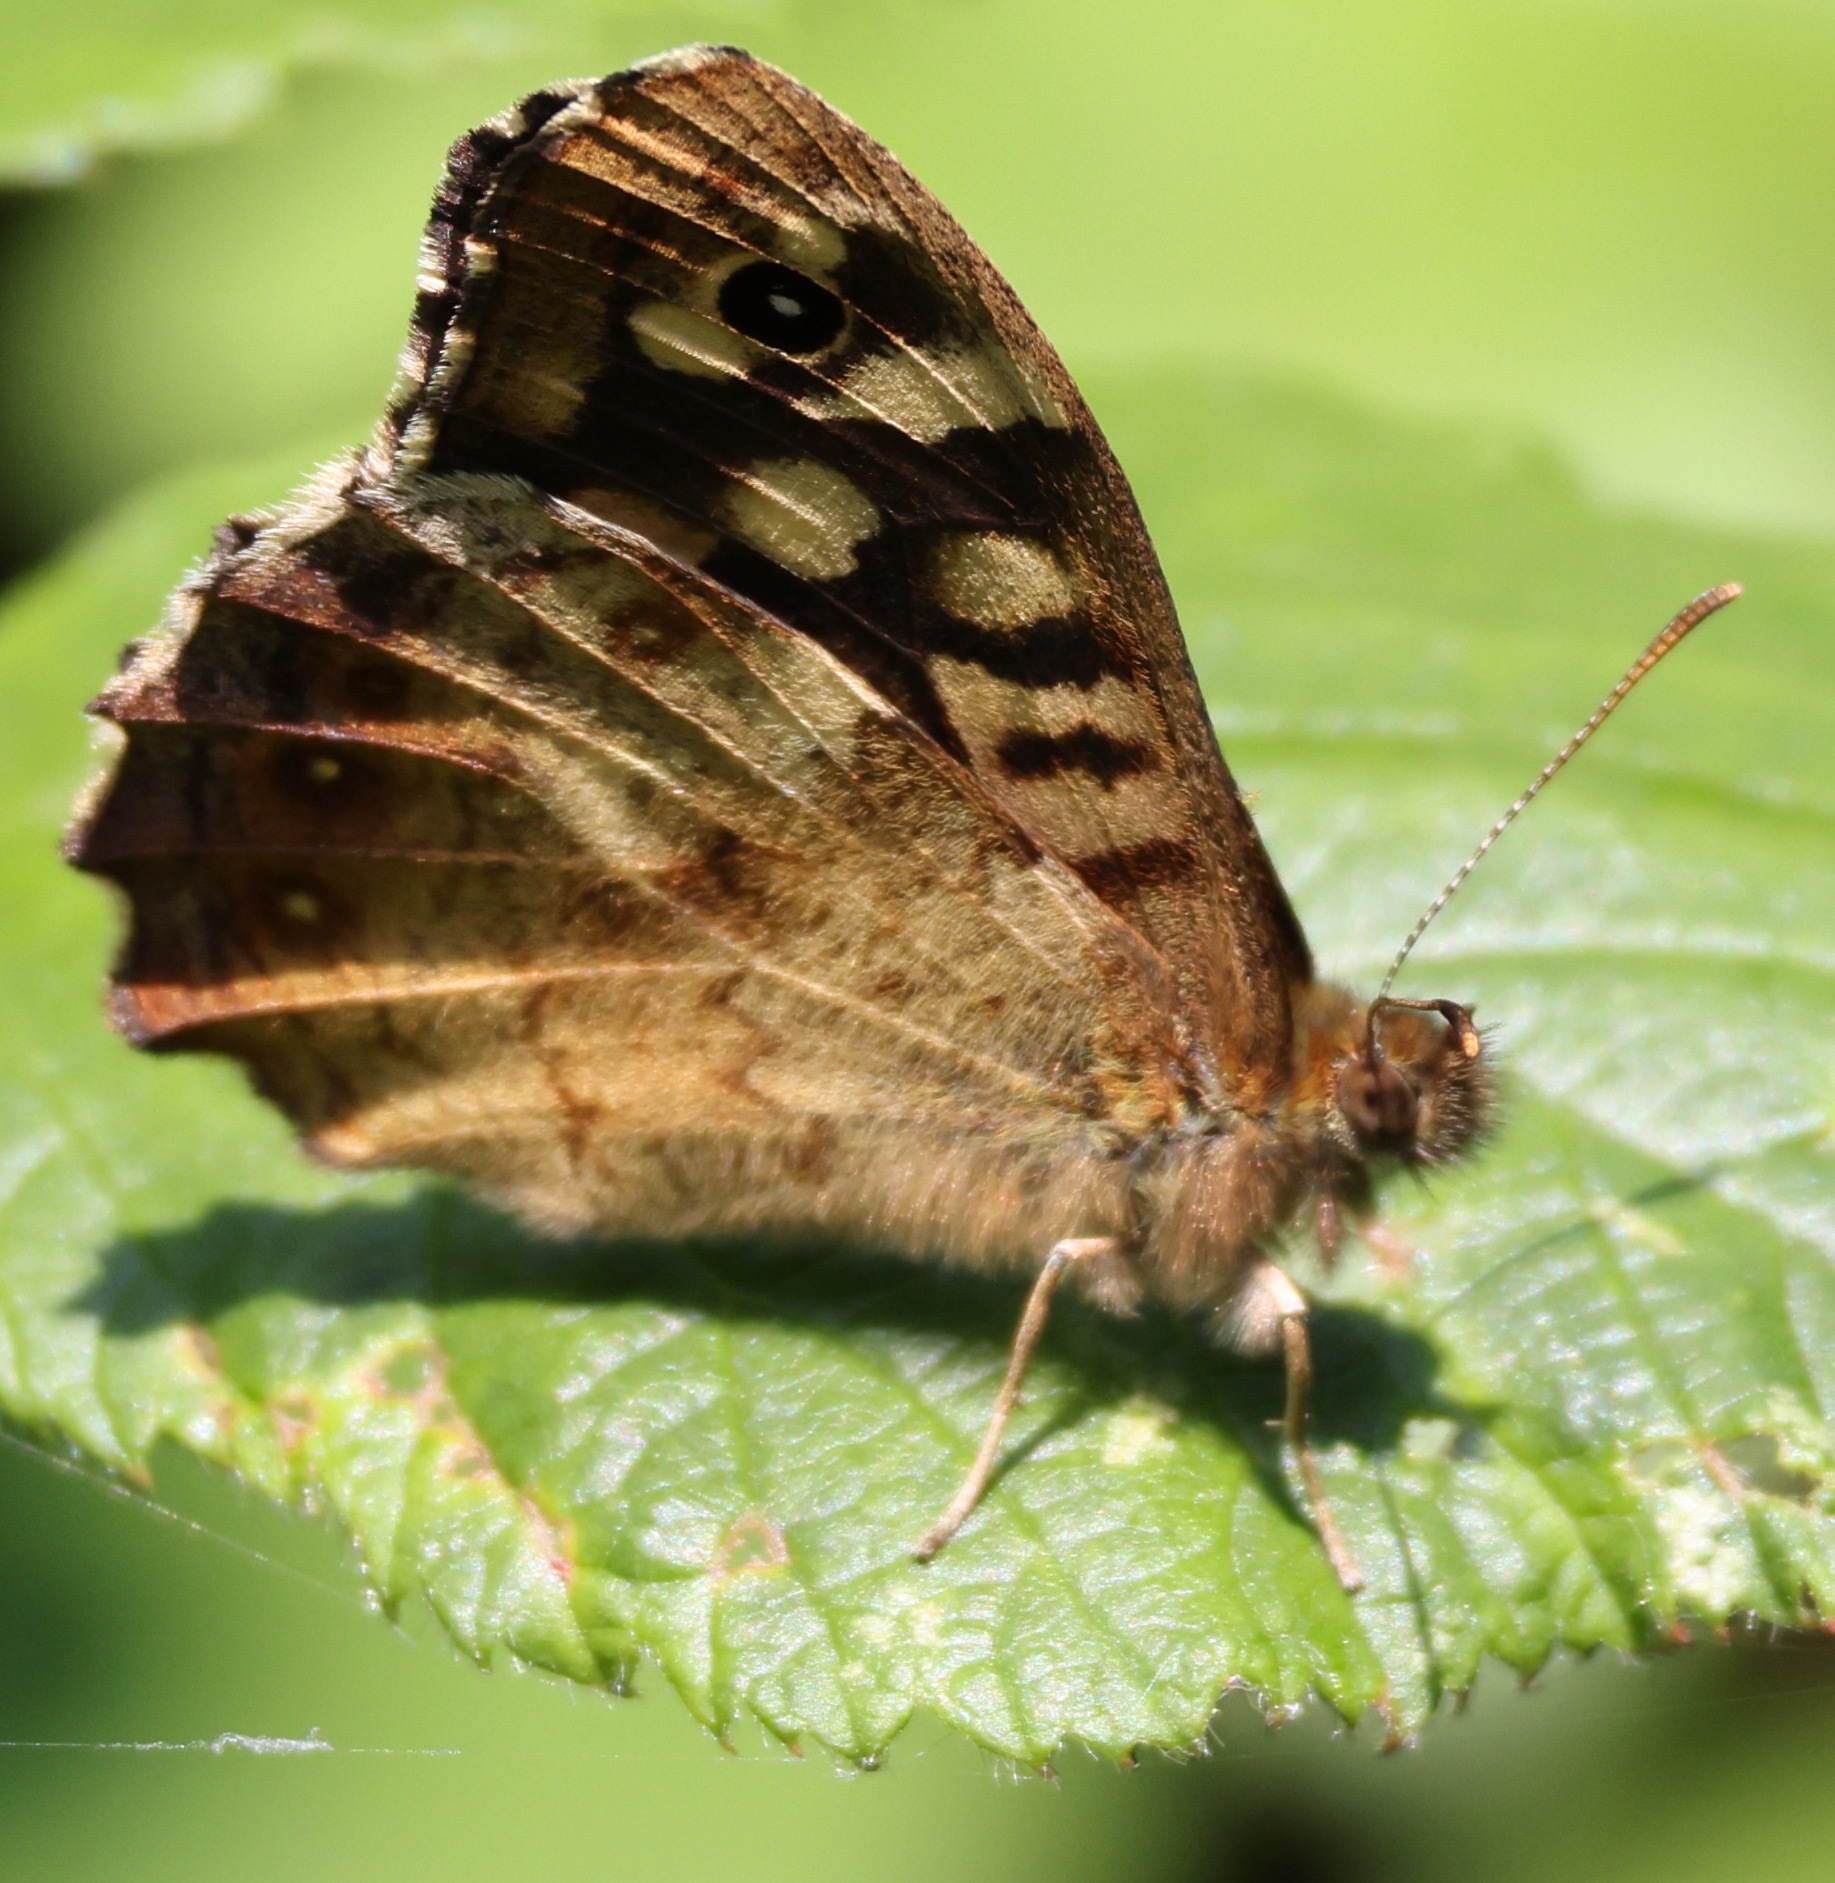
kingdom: Animalia
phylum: Arthropoda
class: Insecta
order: Lepidoptera
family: Nymphalidae
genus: Pararge
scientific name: Pararge aegeria
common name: Speckled wood
